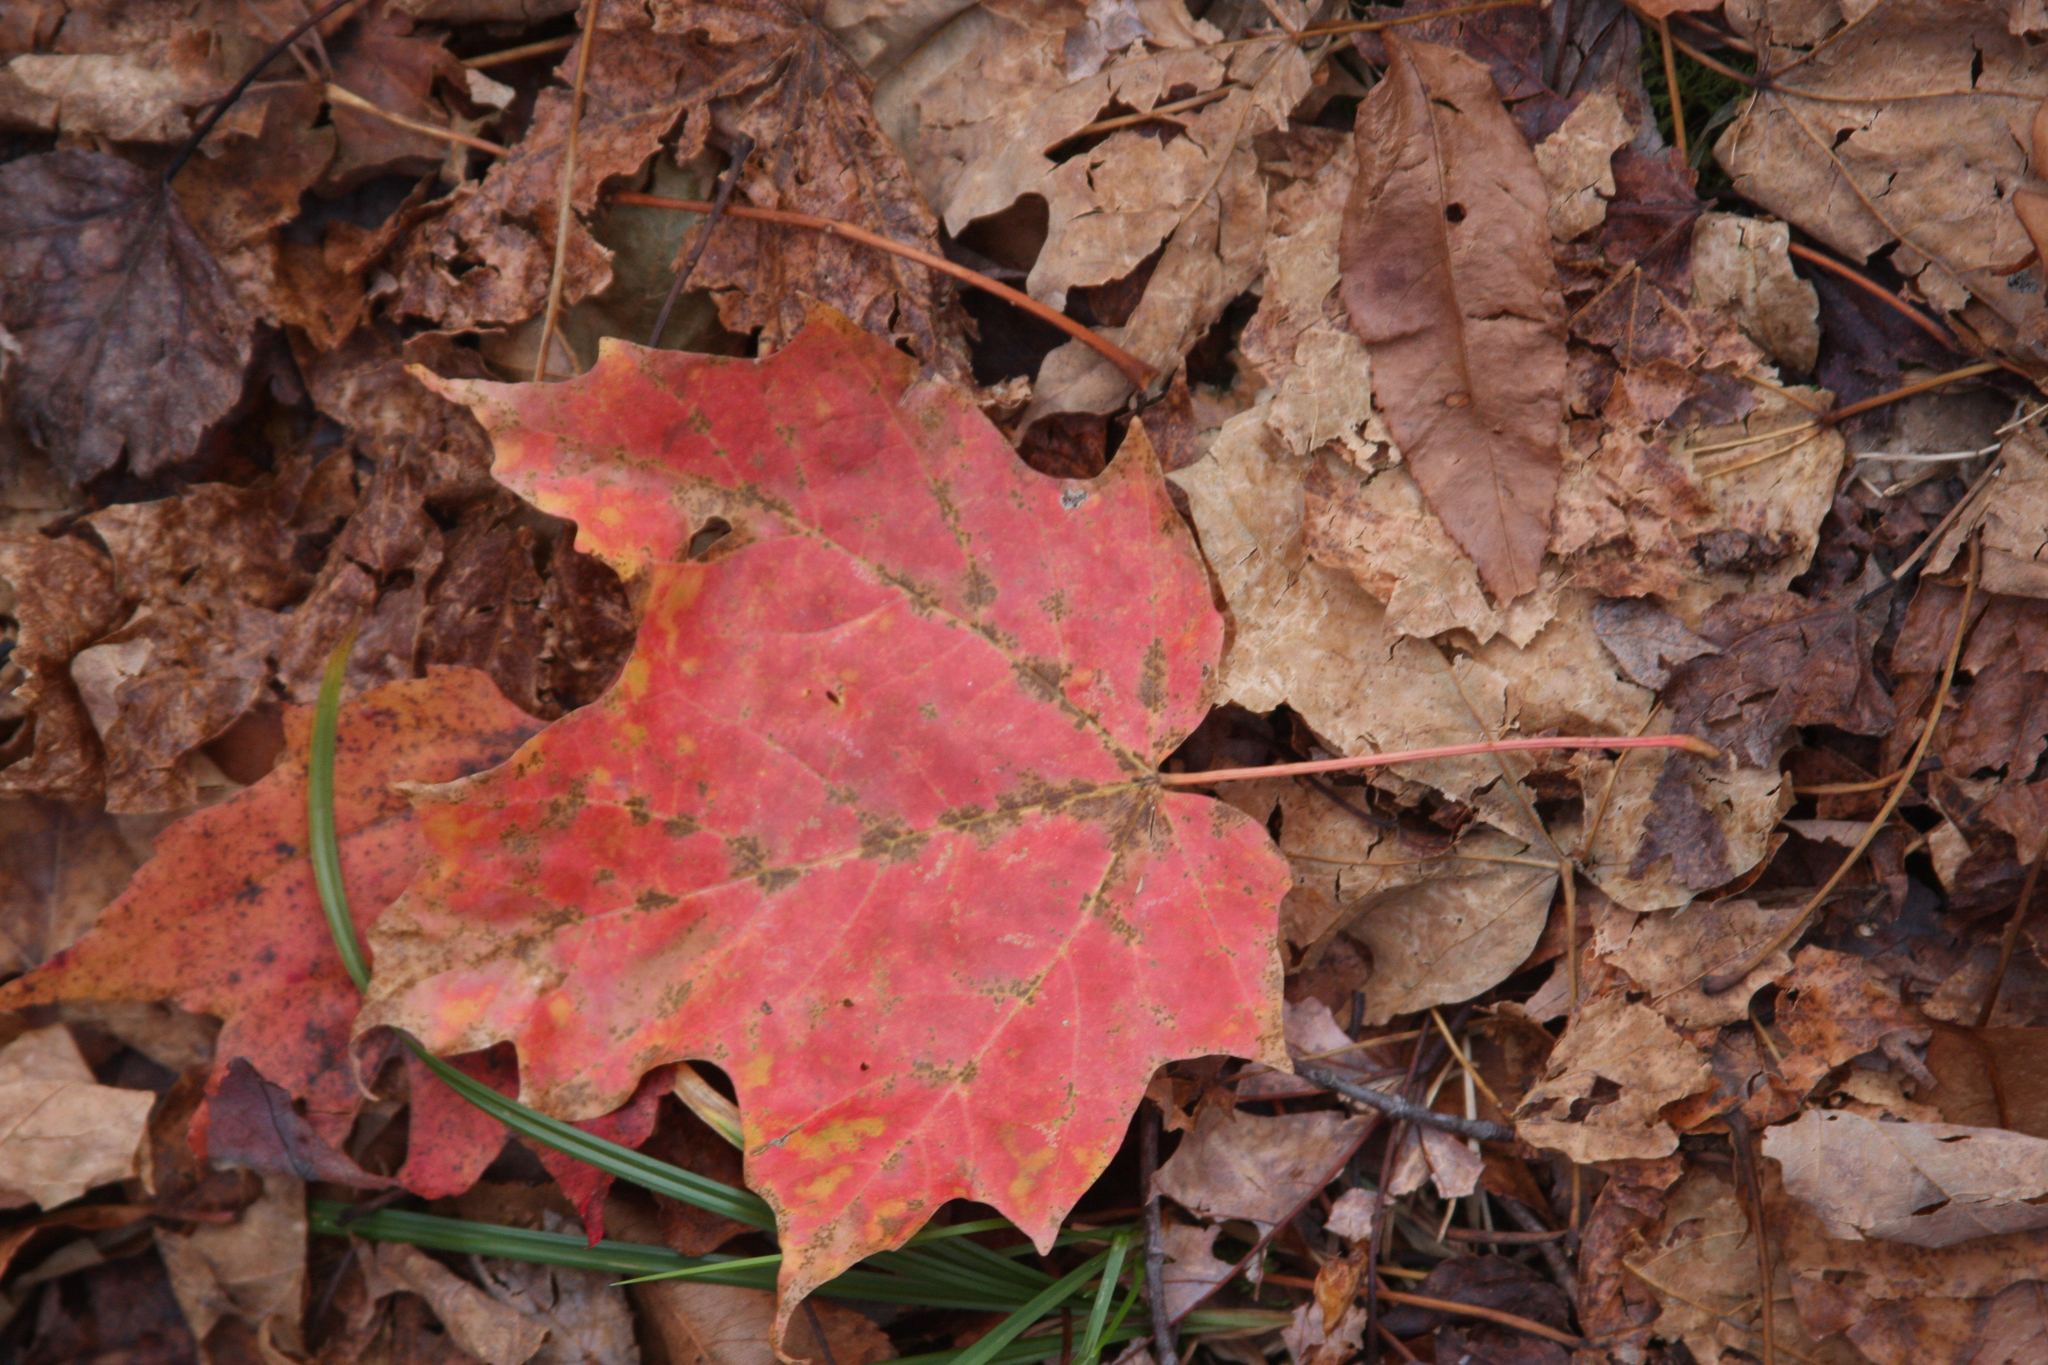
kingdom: Plantae
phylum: Tracheophyta
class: Magnoliopsida
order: Sapindales
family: Sapindaceae
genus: Acer
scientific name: Acer saccharum
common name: Sugar maple
